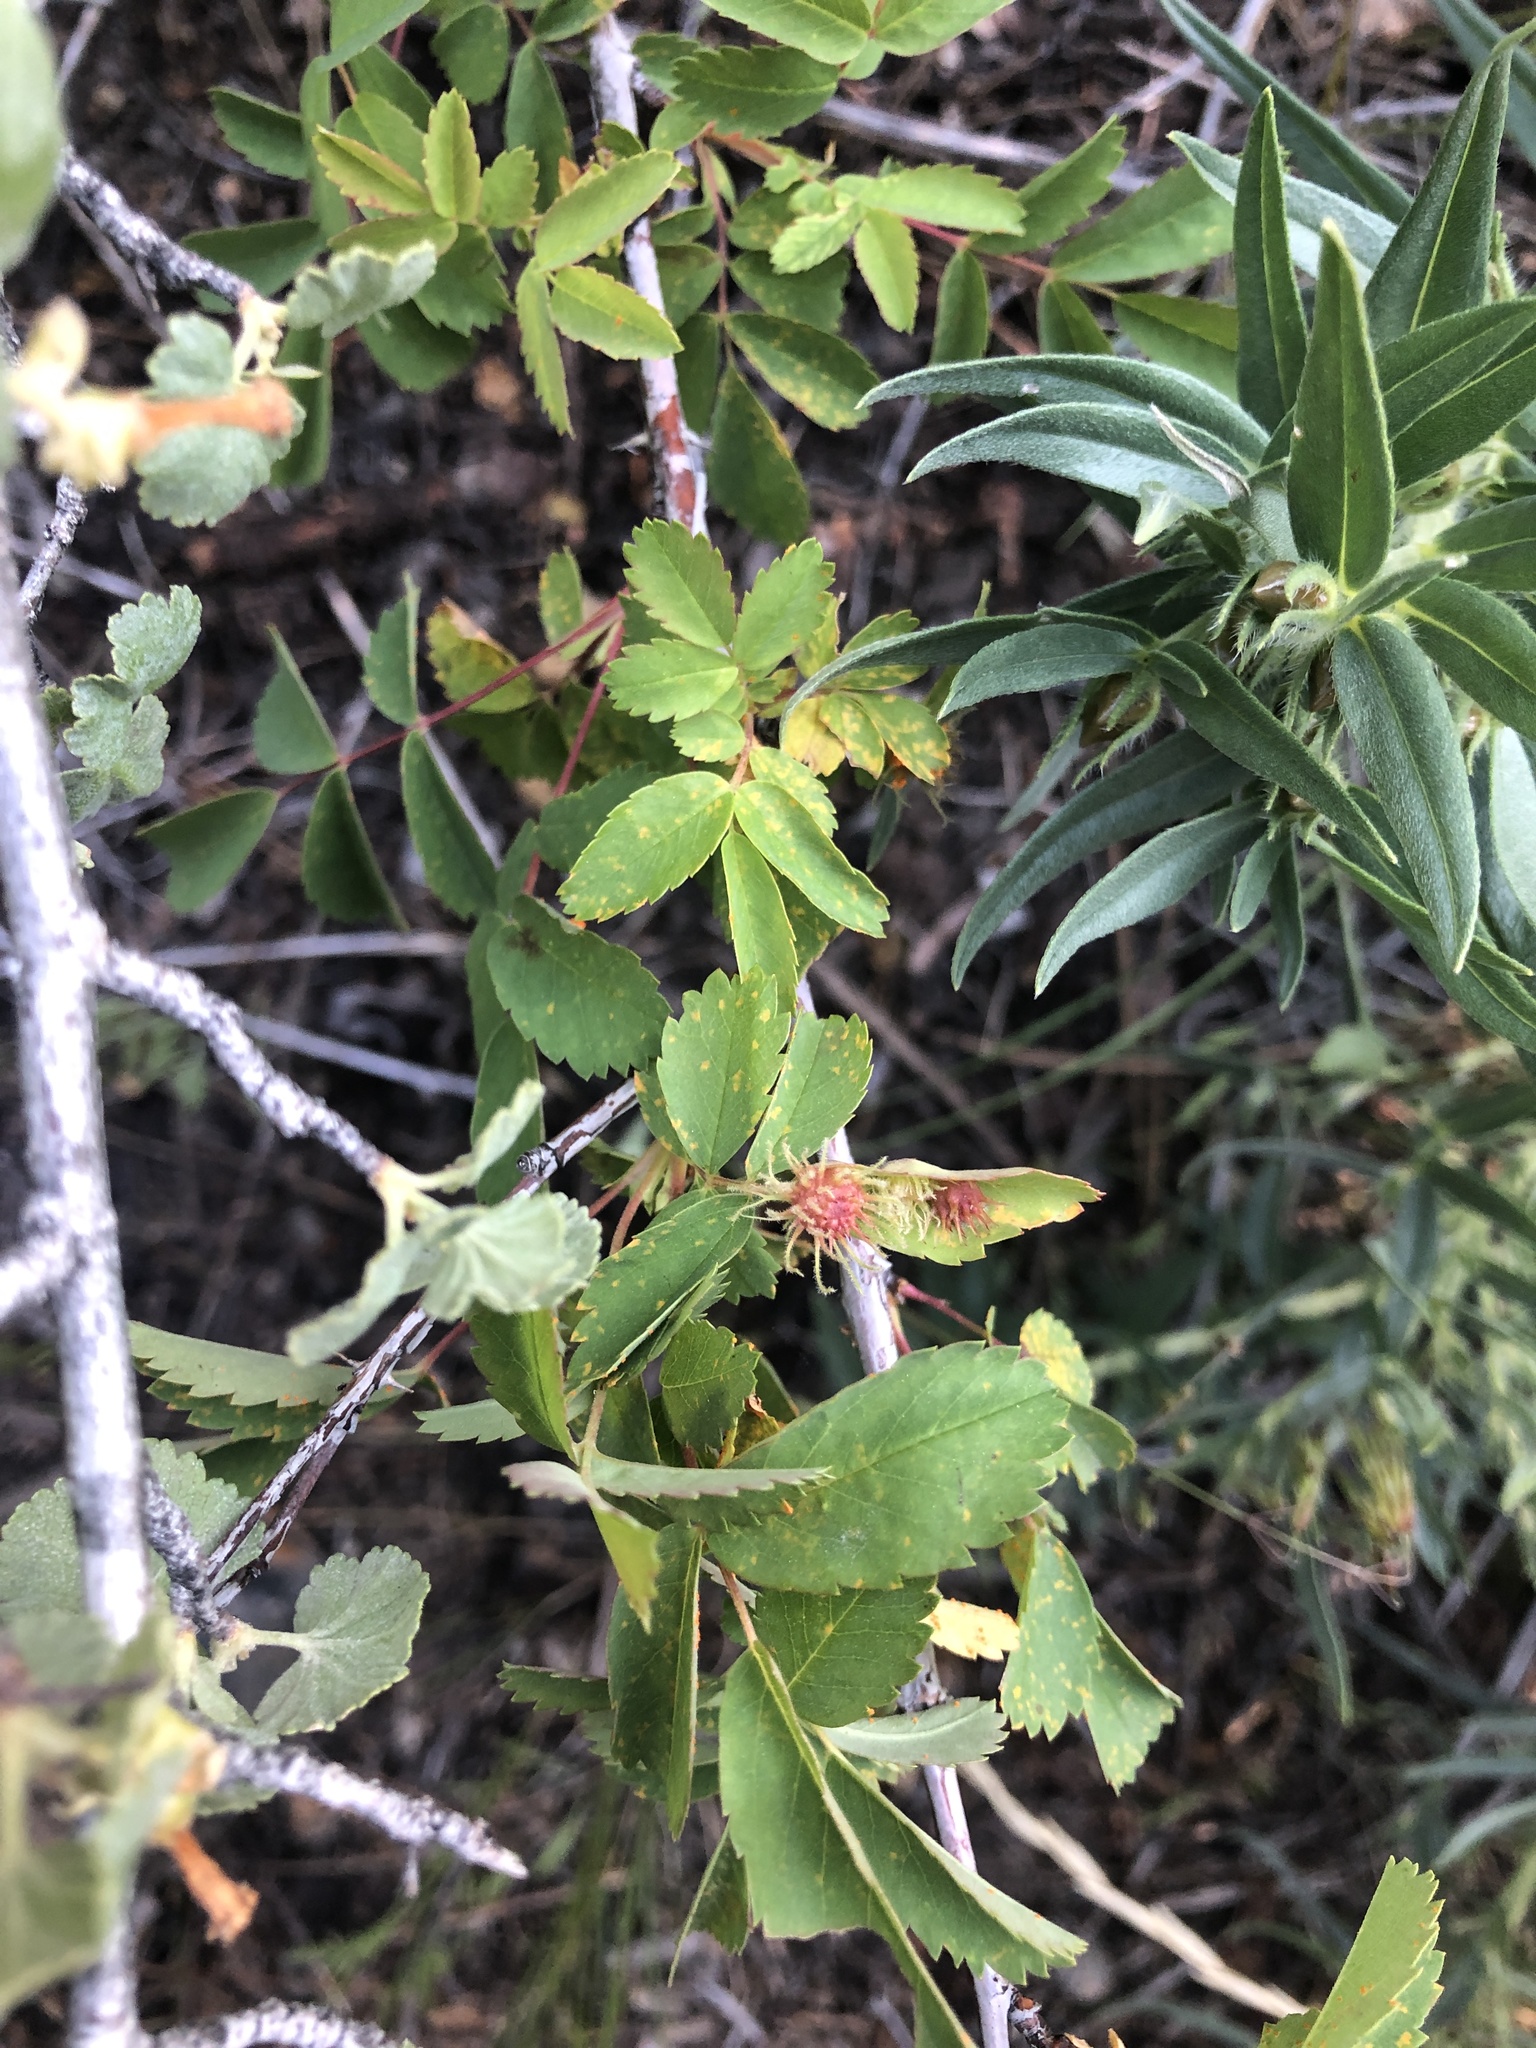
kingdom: Animalia
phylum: Arthropoda
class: Insecta
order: Hymenoptera
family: Cynipidae
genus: Diplolepis
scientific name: Diplolepis bassetti
